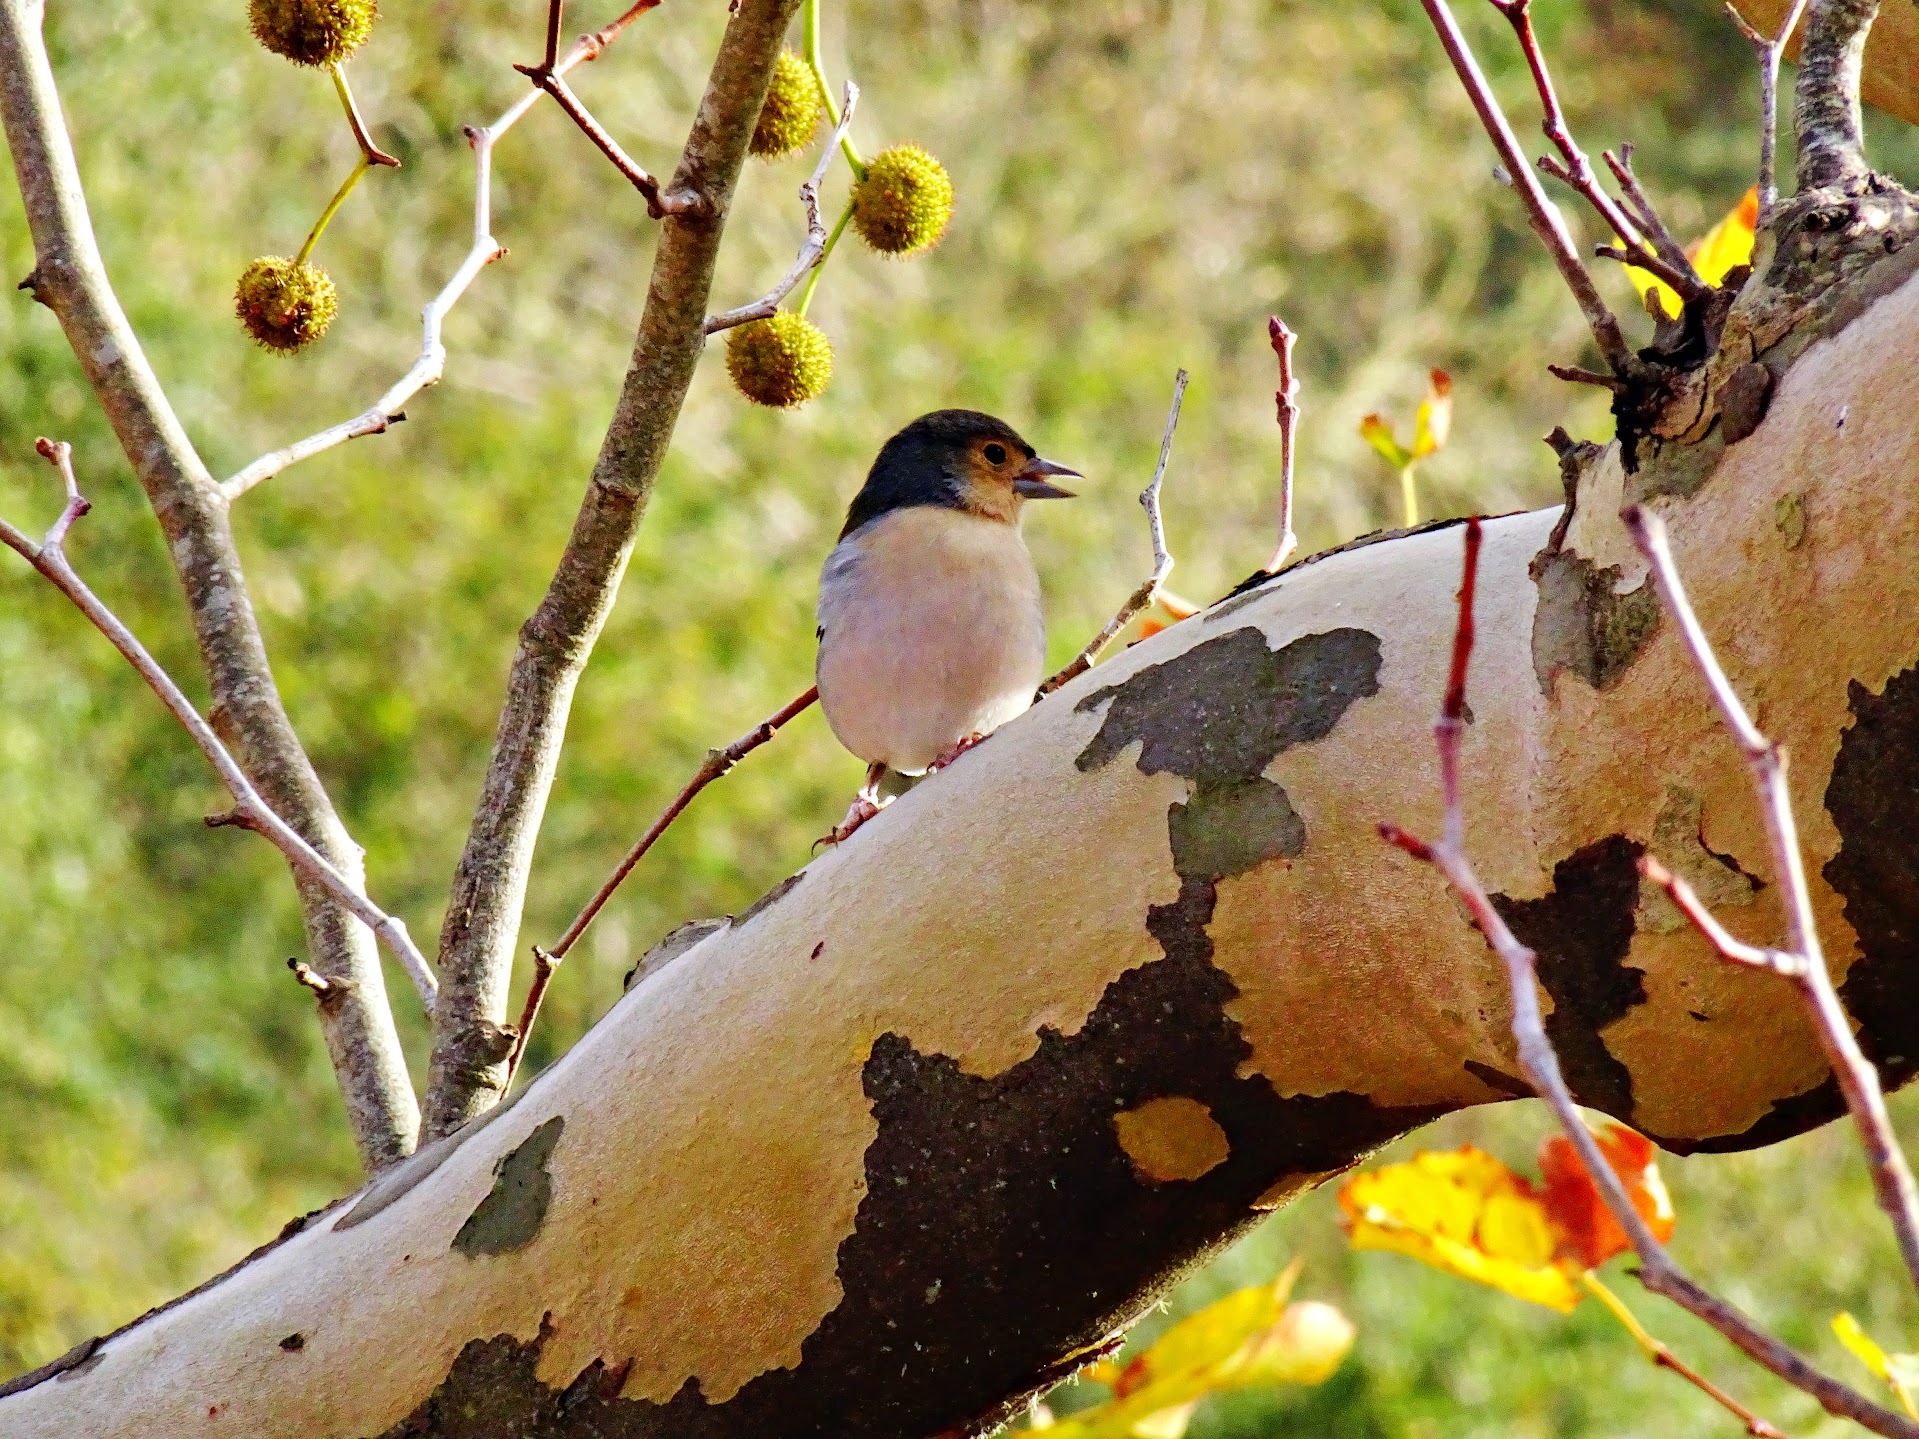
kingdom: Animalia
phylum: Chordata
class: Aves
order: Passeriformes
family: Fringillidae
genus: Fringilla
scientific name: Fringilla maderensis
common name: Madeira chaffinch
